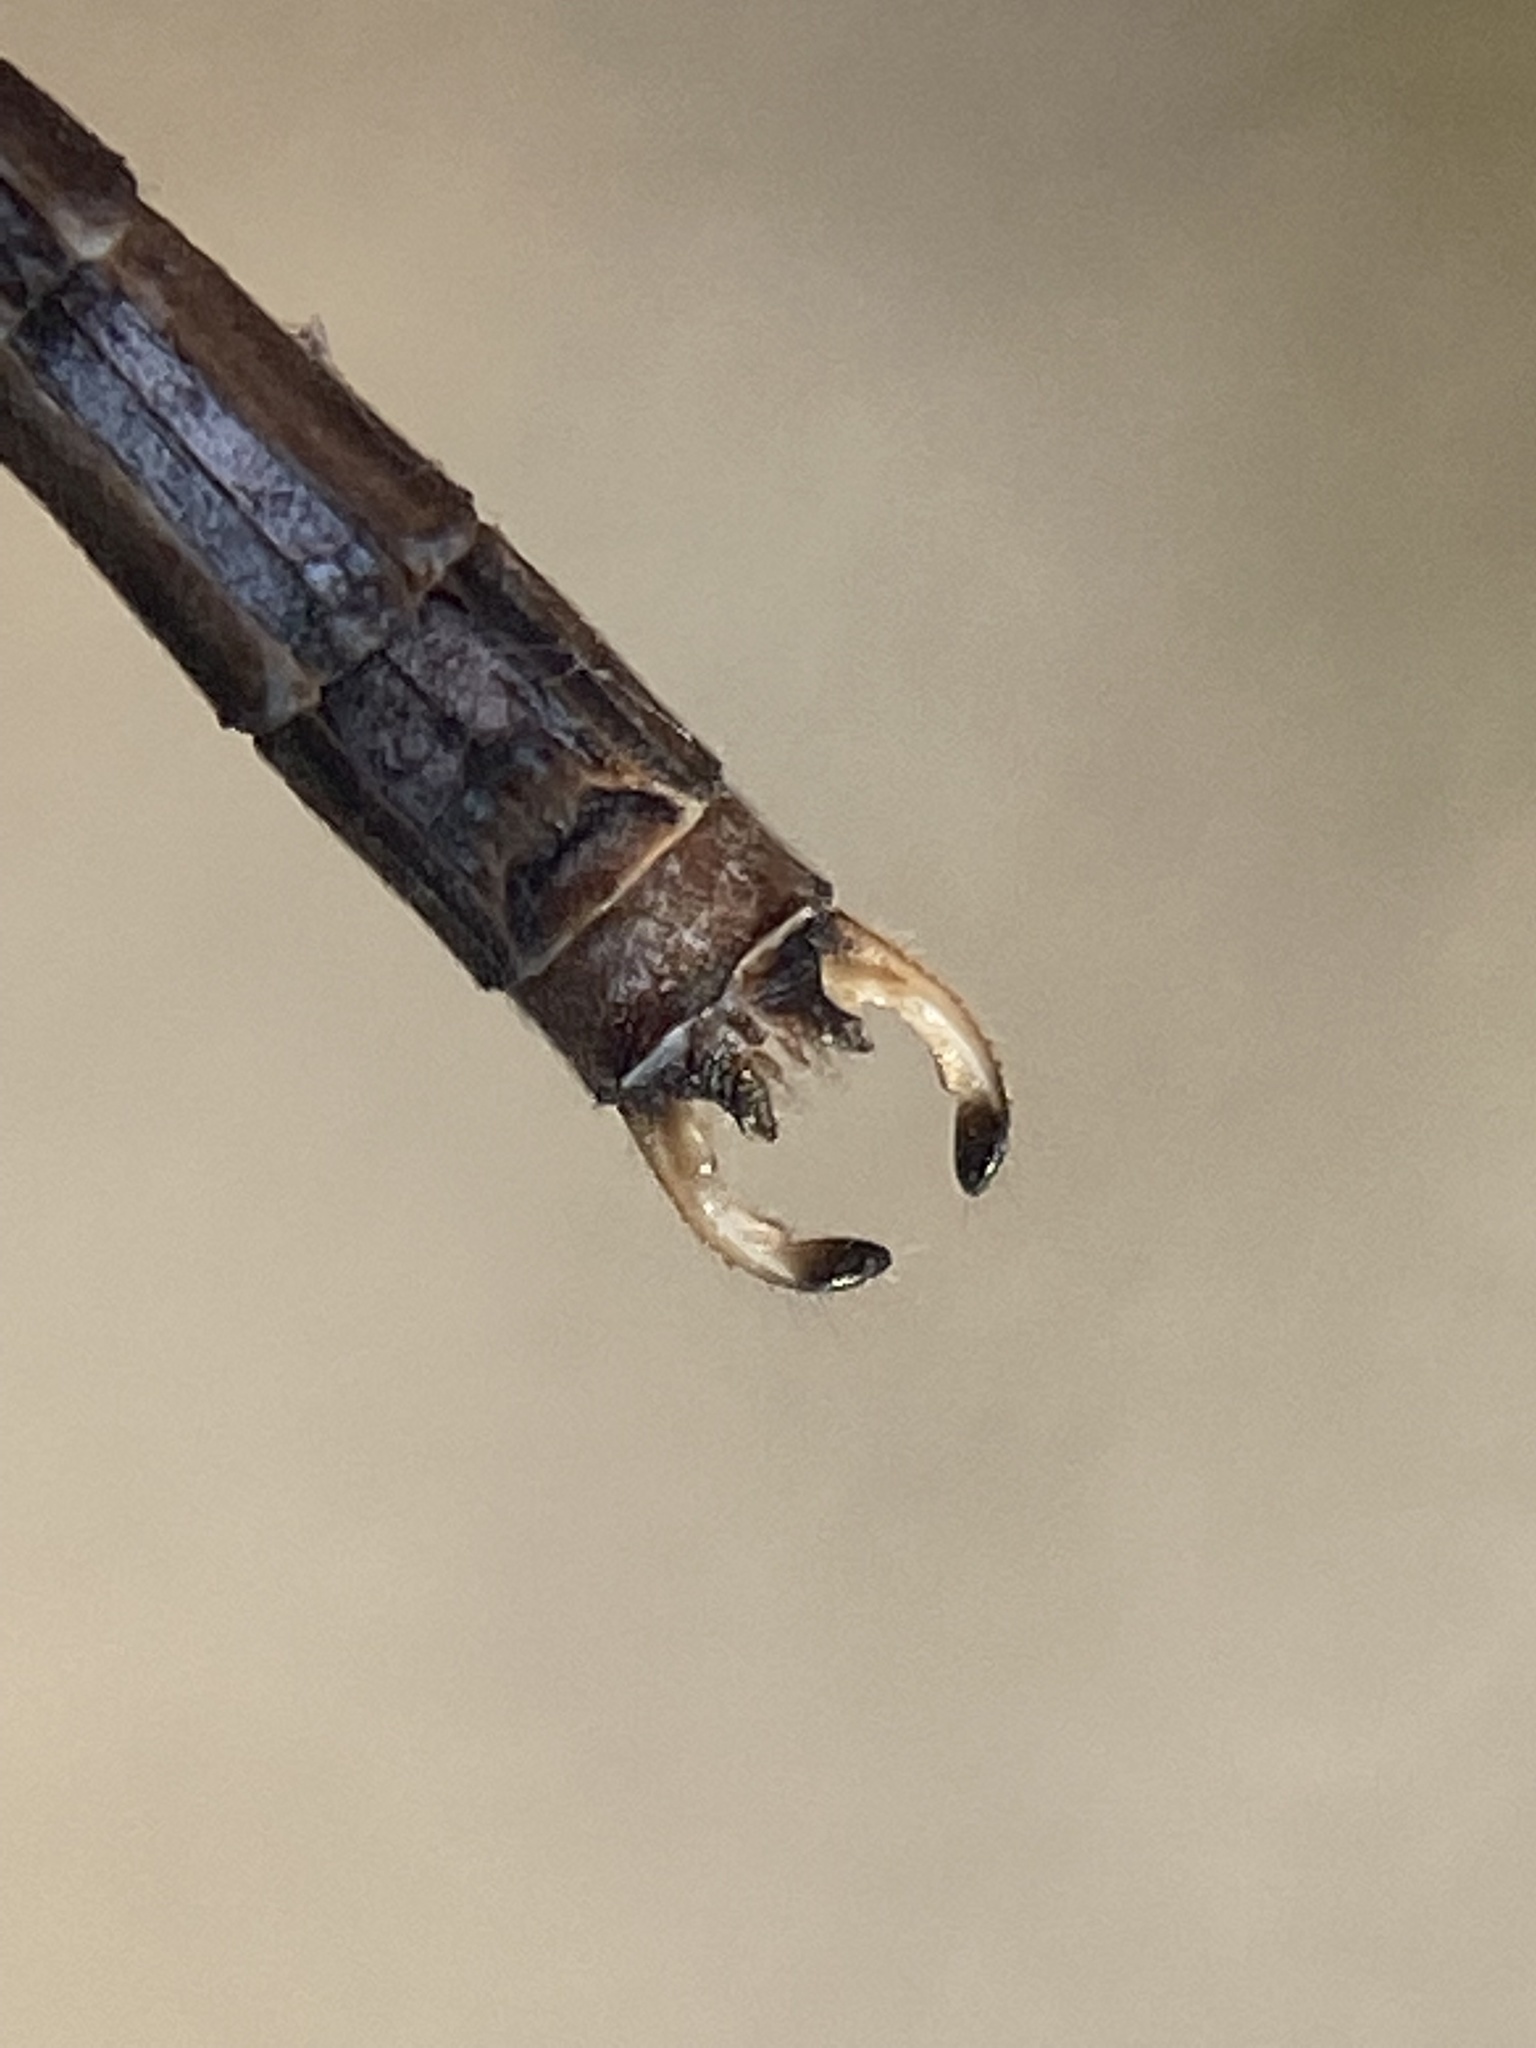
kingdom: Animalia
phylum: Arthropoda
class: Insecta
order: Odonata
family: Lestidae
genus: Chalcolestes
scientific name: Chalcolestes viridis
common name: Green emerald damselfly
